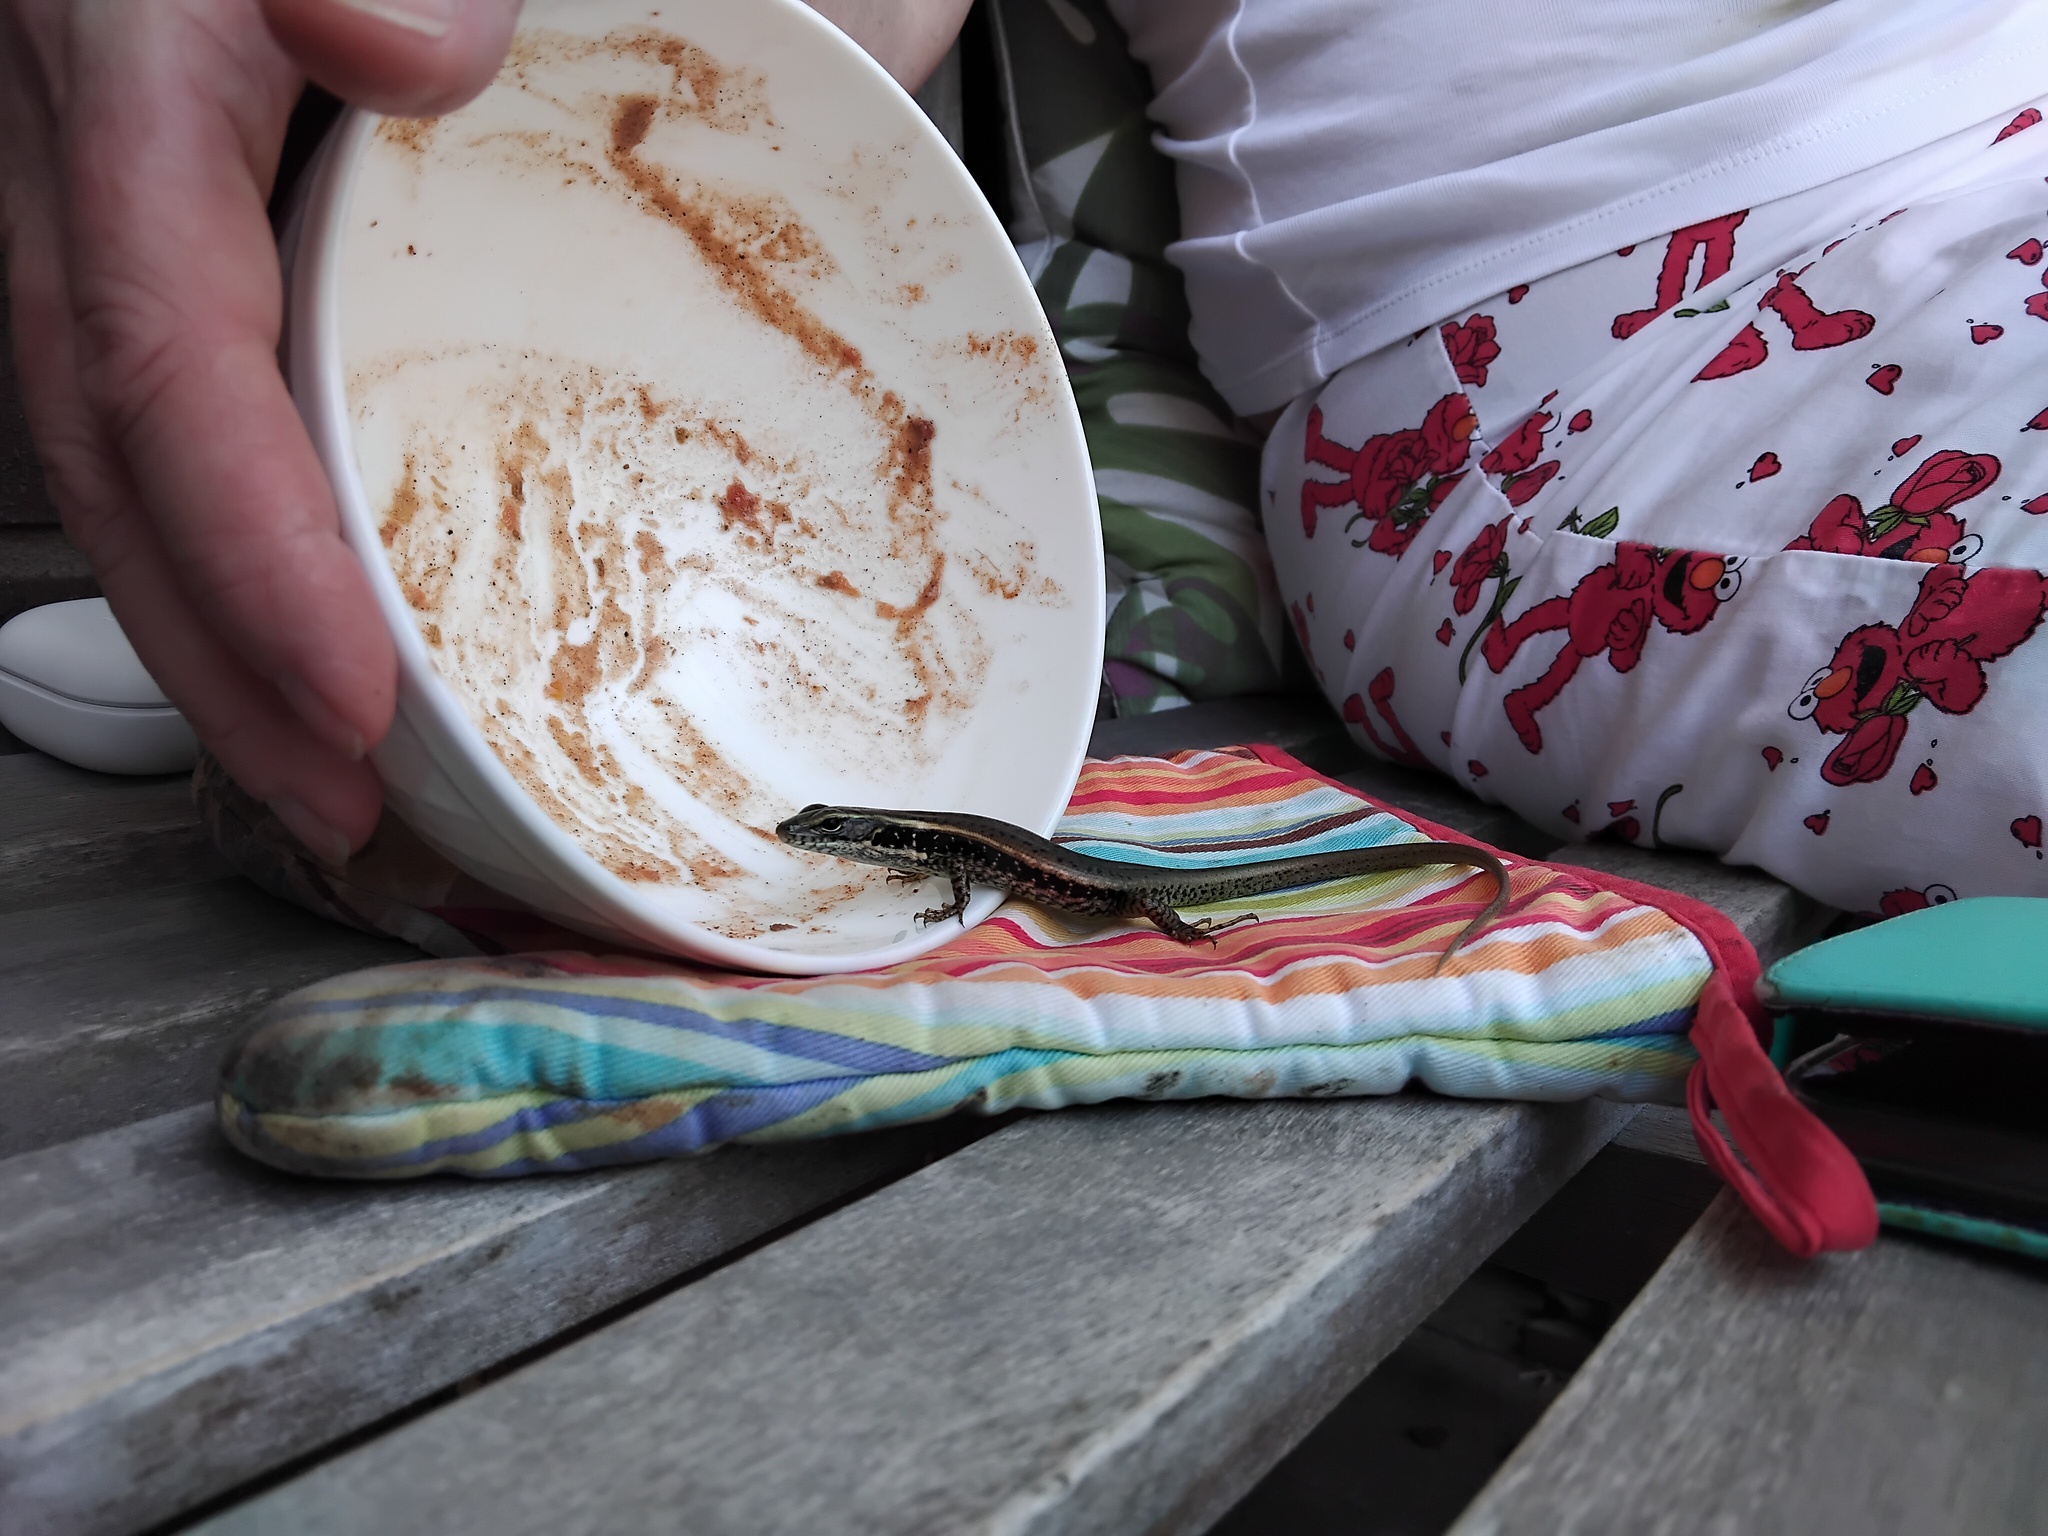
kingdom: Animalia
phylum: Chordata
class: Squamata
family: Scincidae
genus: Eulamprus
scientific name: Eulamprus quoyii
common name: Eastern water skink
